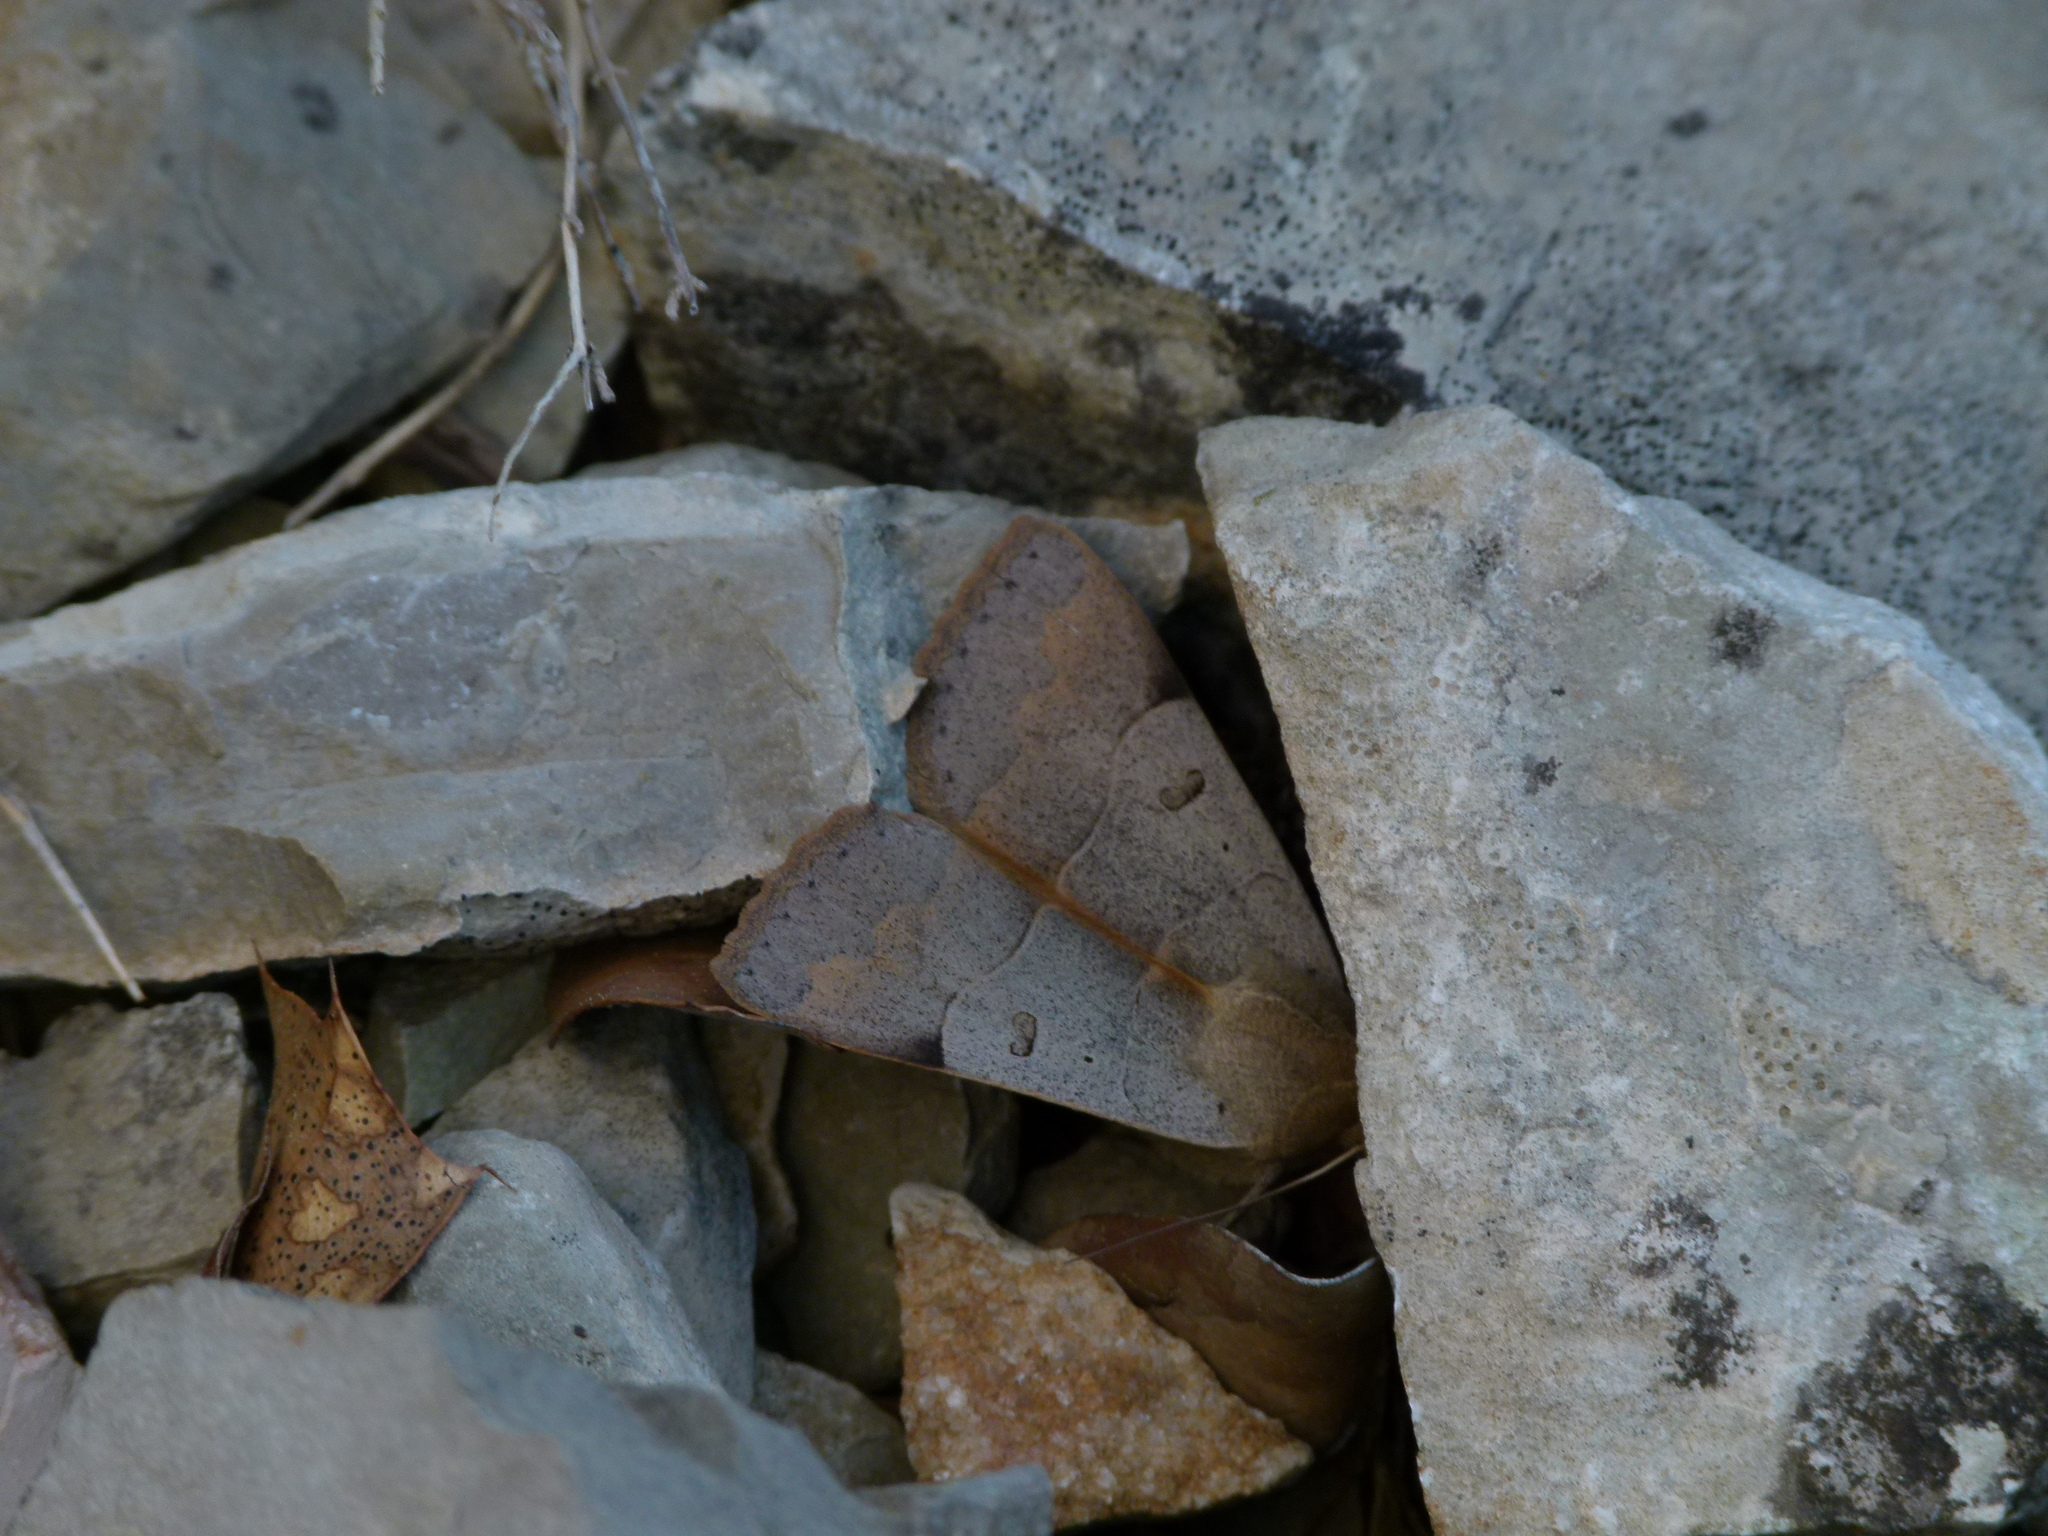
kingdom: Animalia
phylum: Arthropoda
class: Insecta
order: Lepidoptera
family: Erebidae
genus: Minucia
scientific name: Minucia lunaris
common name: Lunar double-stripe
